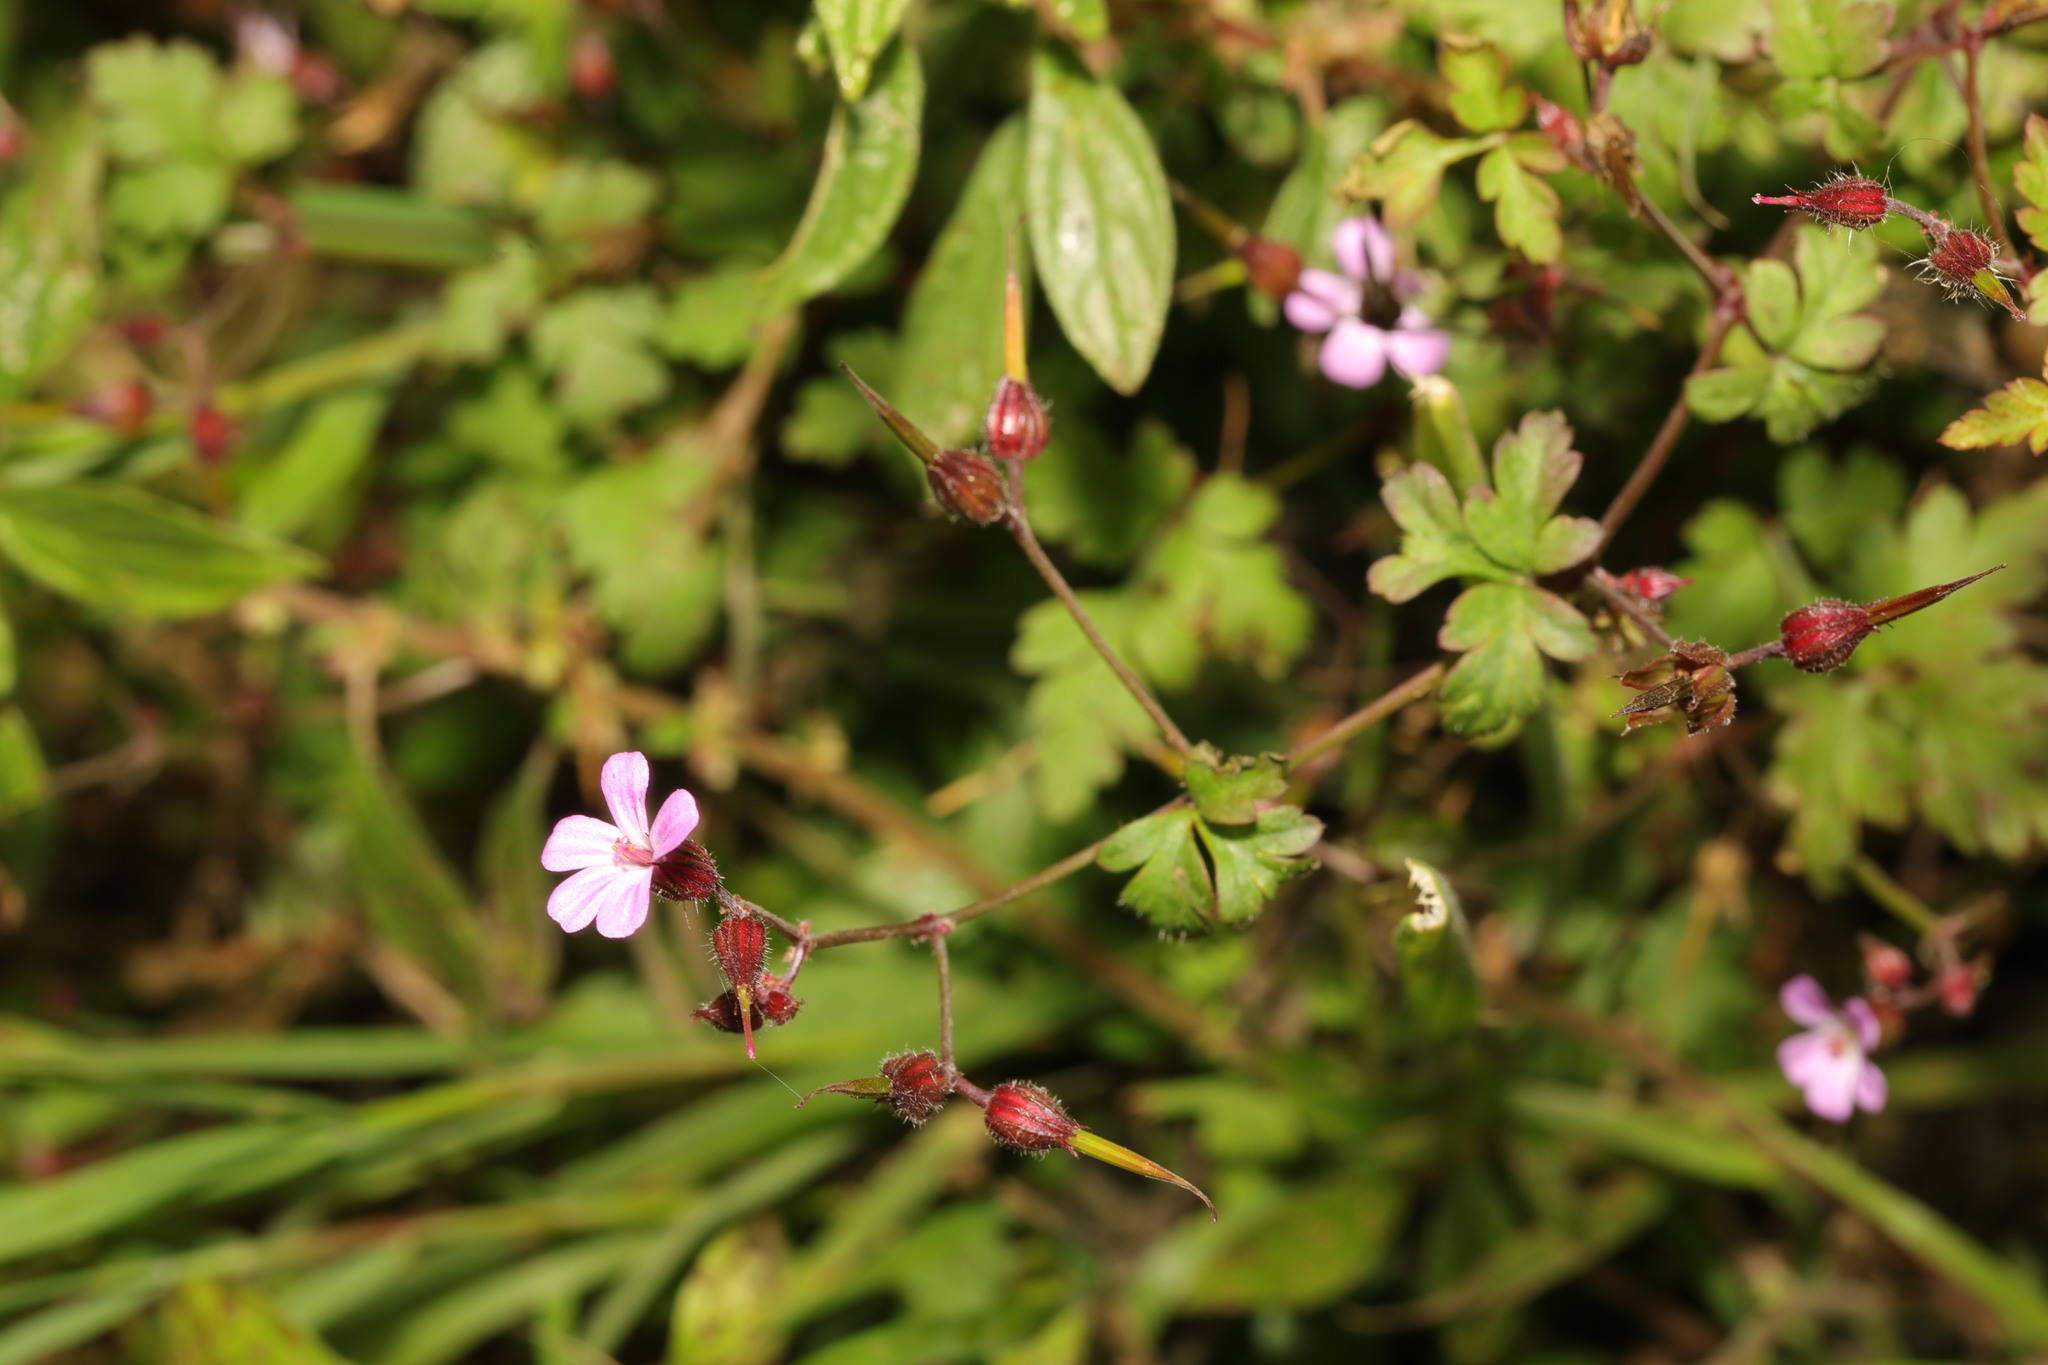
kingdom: Plantae
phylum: Tracheophyta
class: Magnoliopsida
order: Geraniales
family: Geraniaceae
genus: Geranium
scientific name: Geranium robertianum
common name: Herb-robert
